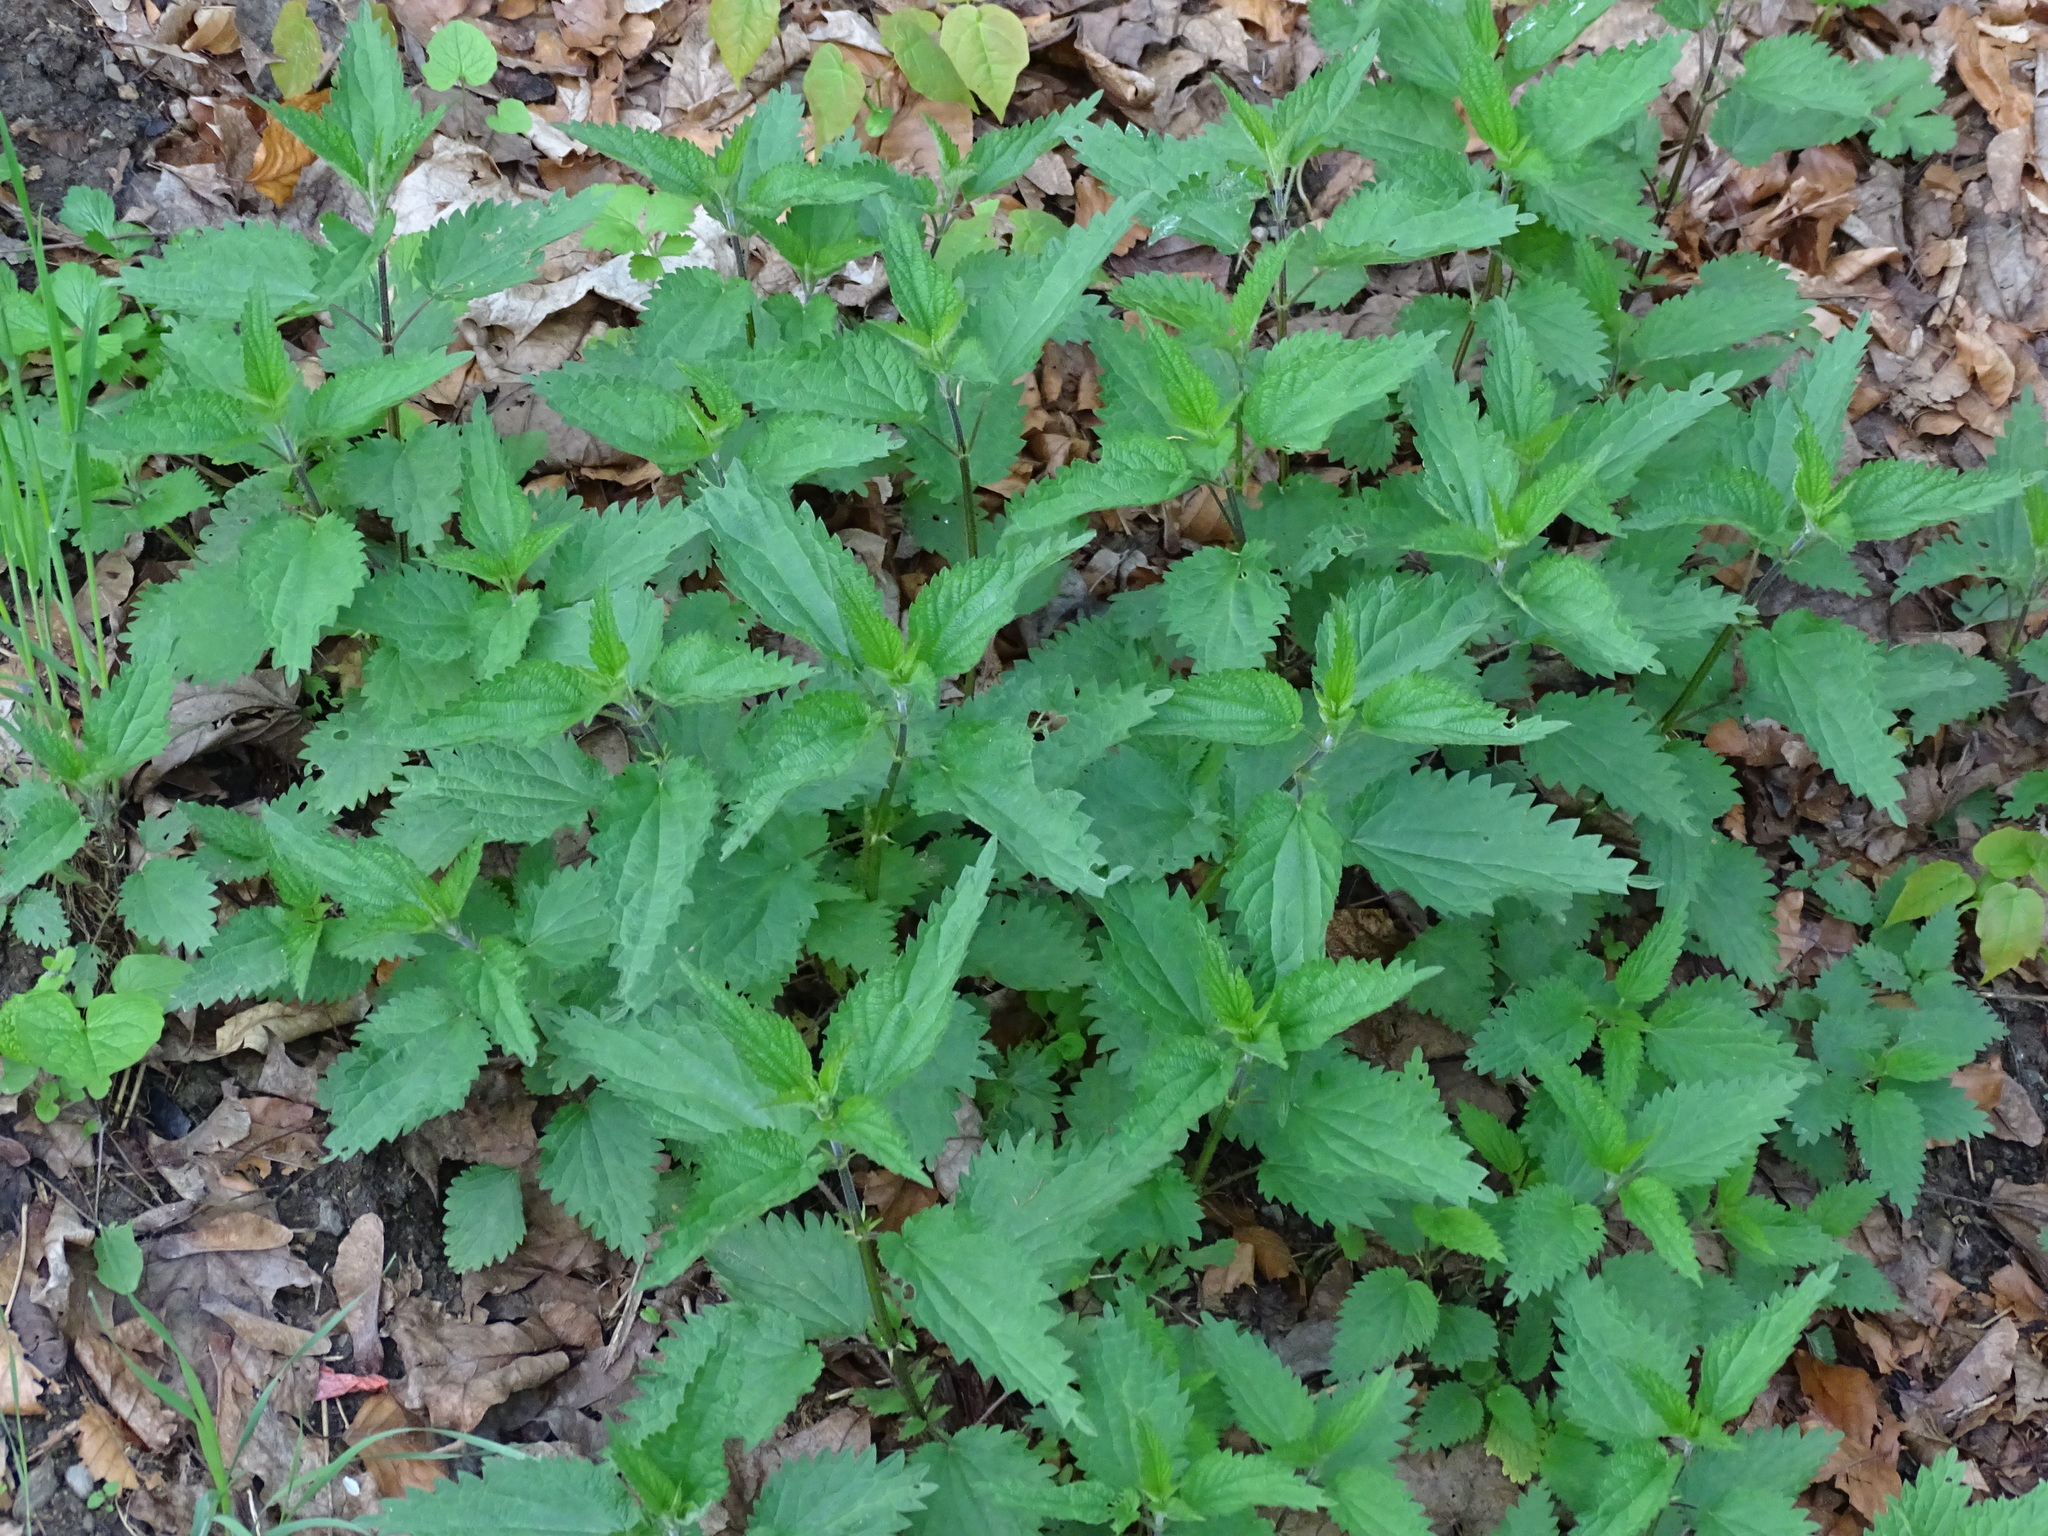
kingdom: Plantae
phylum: Tracheophyta
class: Magnoliopsida
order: Rosales
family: Urticaceae
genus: Urtica
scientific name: Urtica dioica
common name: Common nettle
